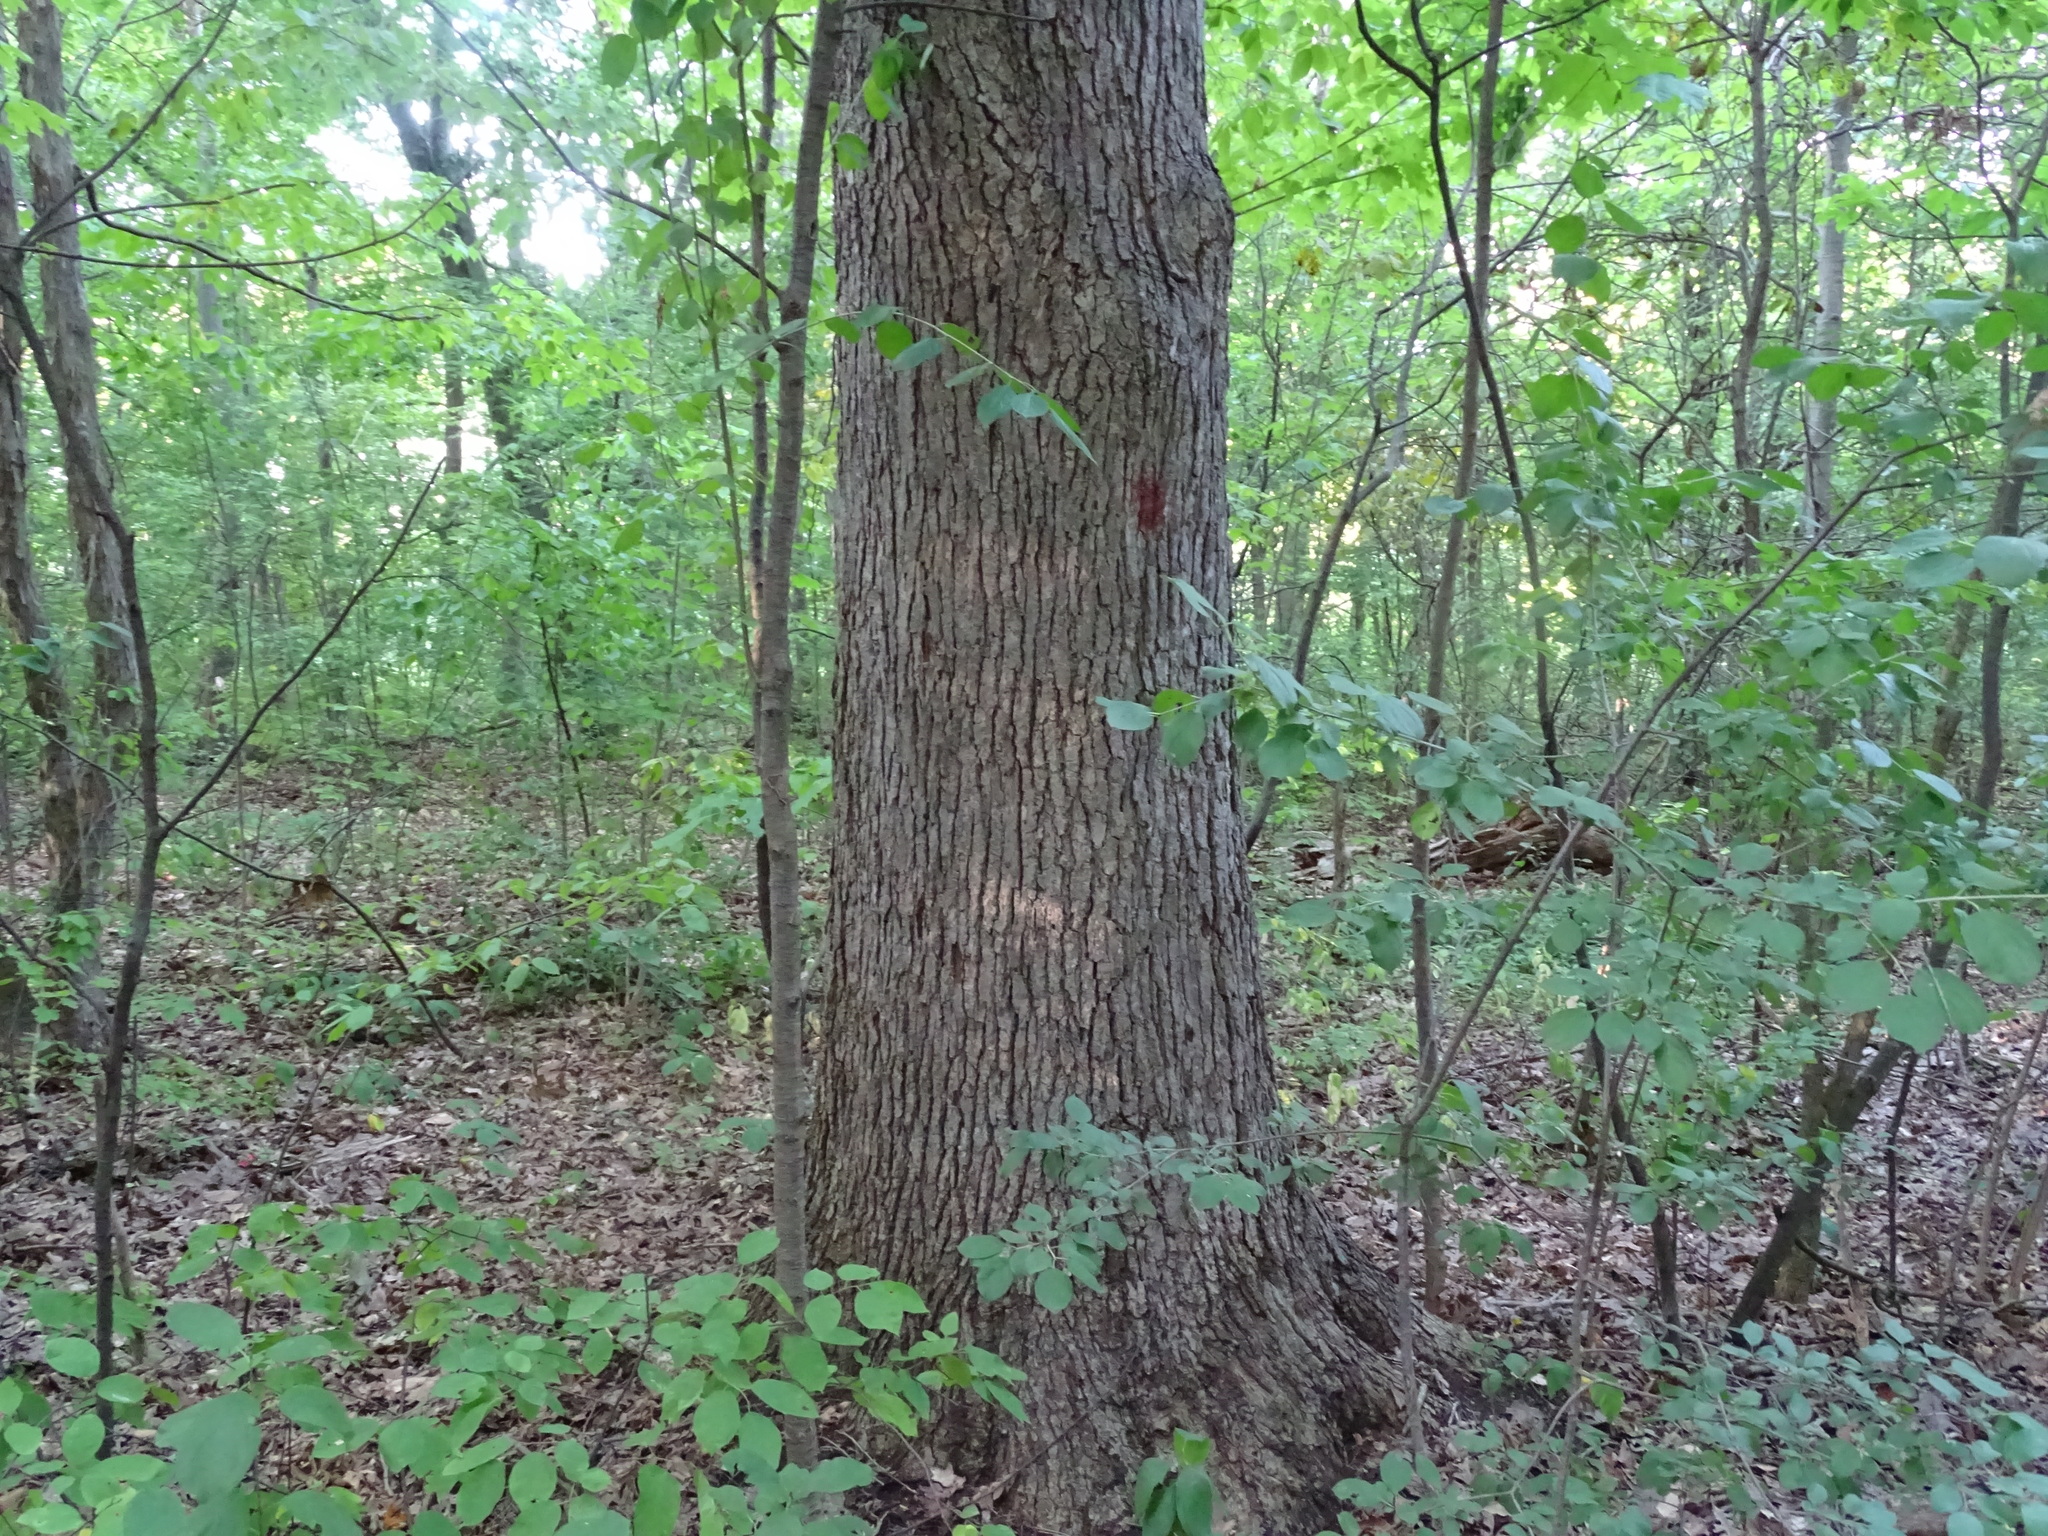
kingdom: Plantae
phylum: Tracheophyta
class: Magnoliopsida
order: Fagales
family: Fagaceae
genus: Quercus
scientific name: Quercus alba
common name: White oak
